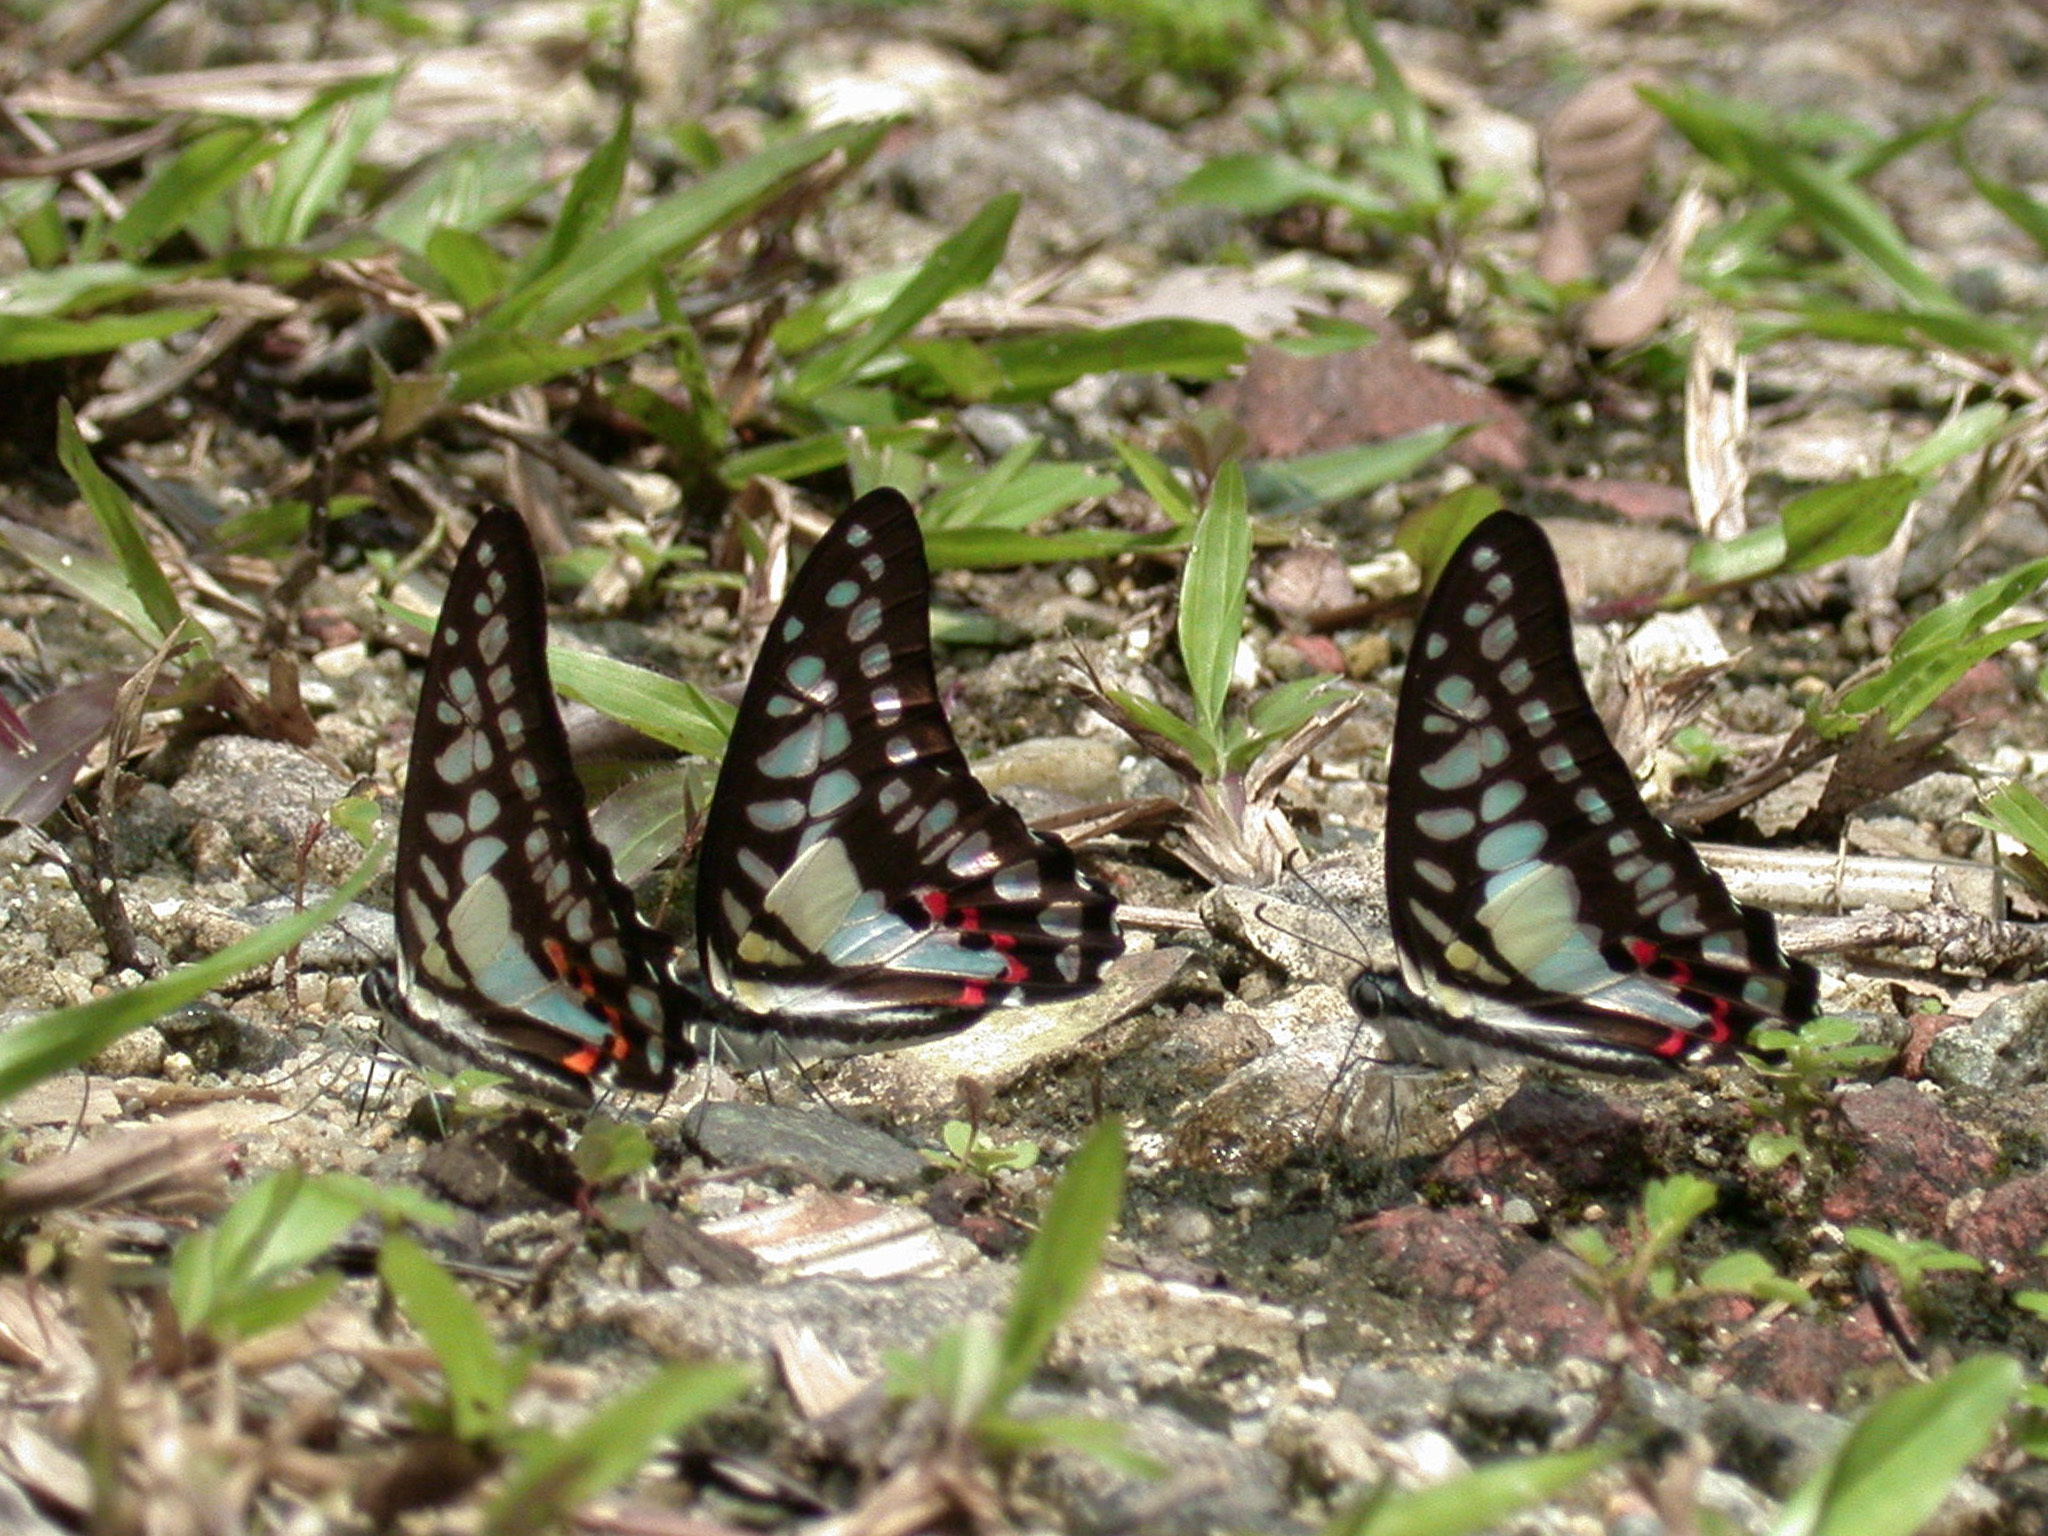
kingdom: Animalia
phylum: Arthropoda
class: Insecta
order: Lepidoptera
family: Papilionidae
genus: Graphium
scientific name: Graphium evemon
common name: Lesser jay
